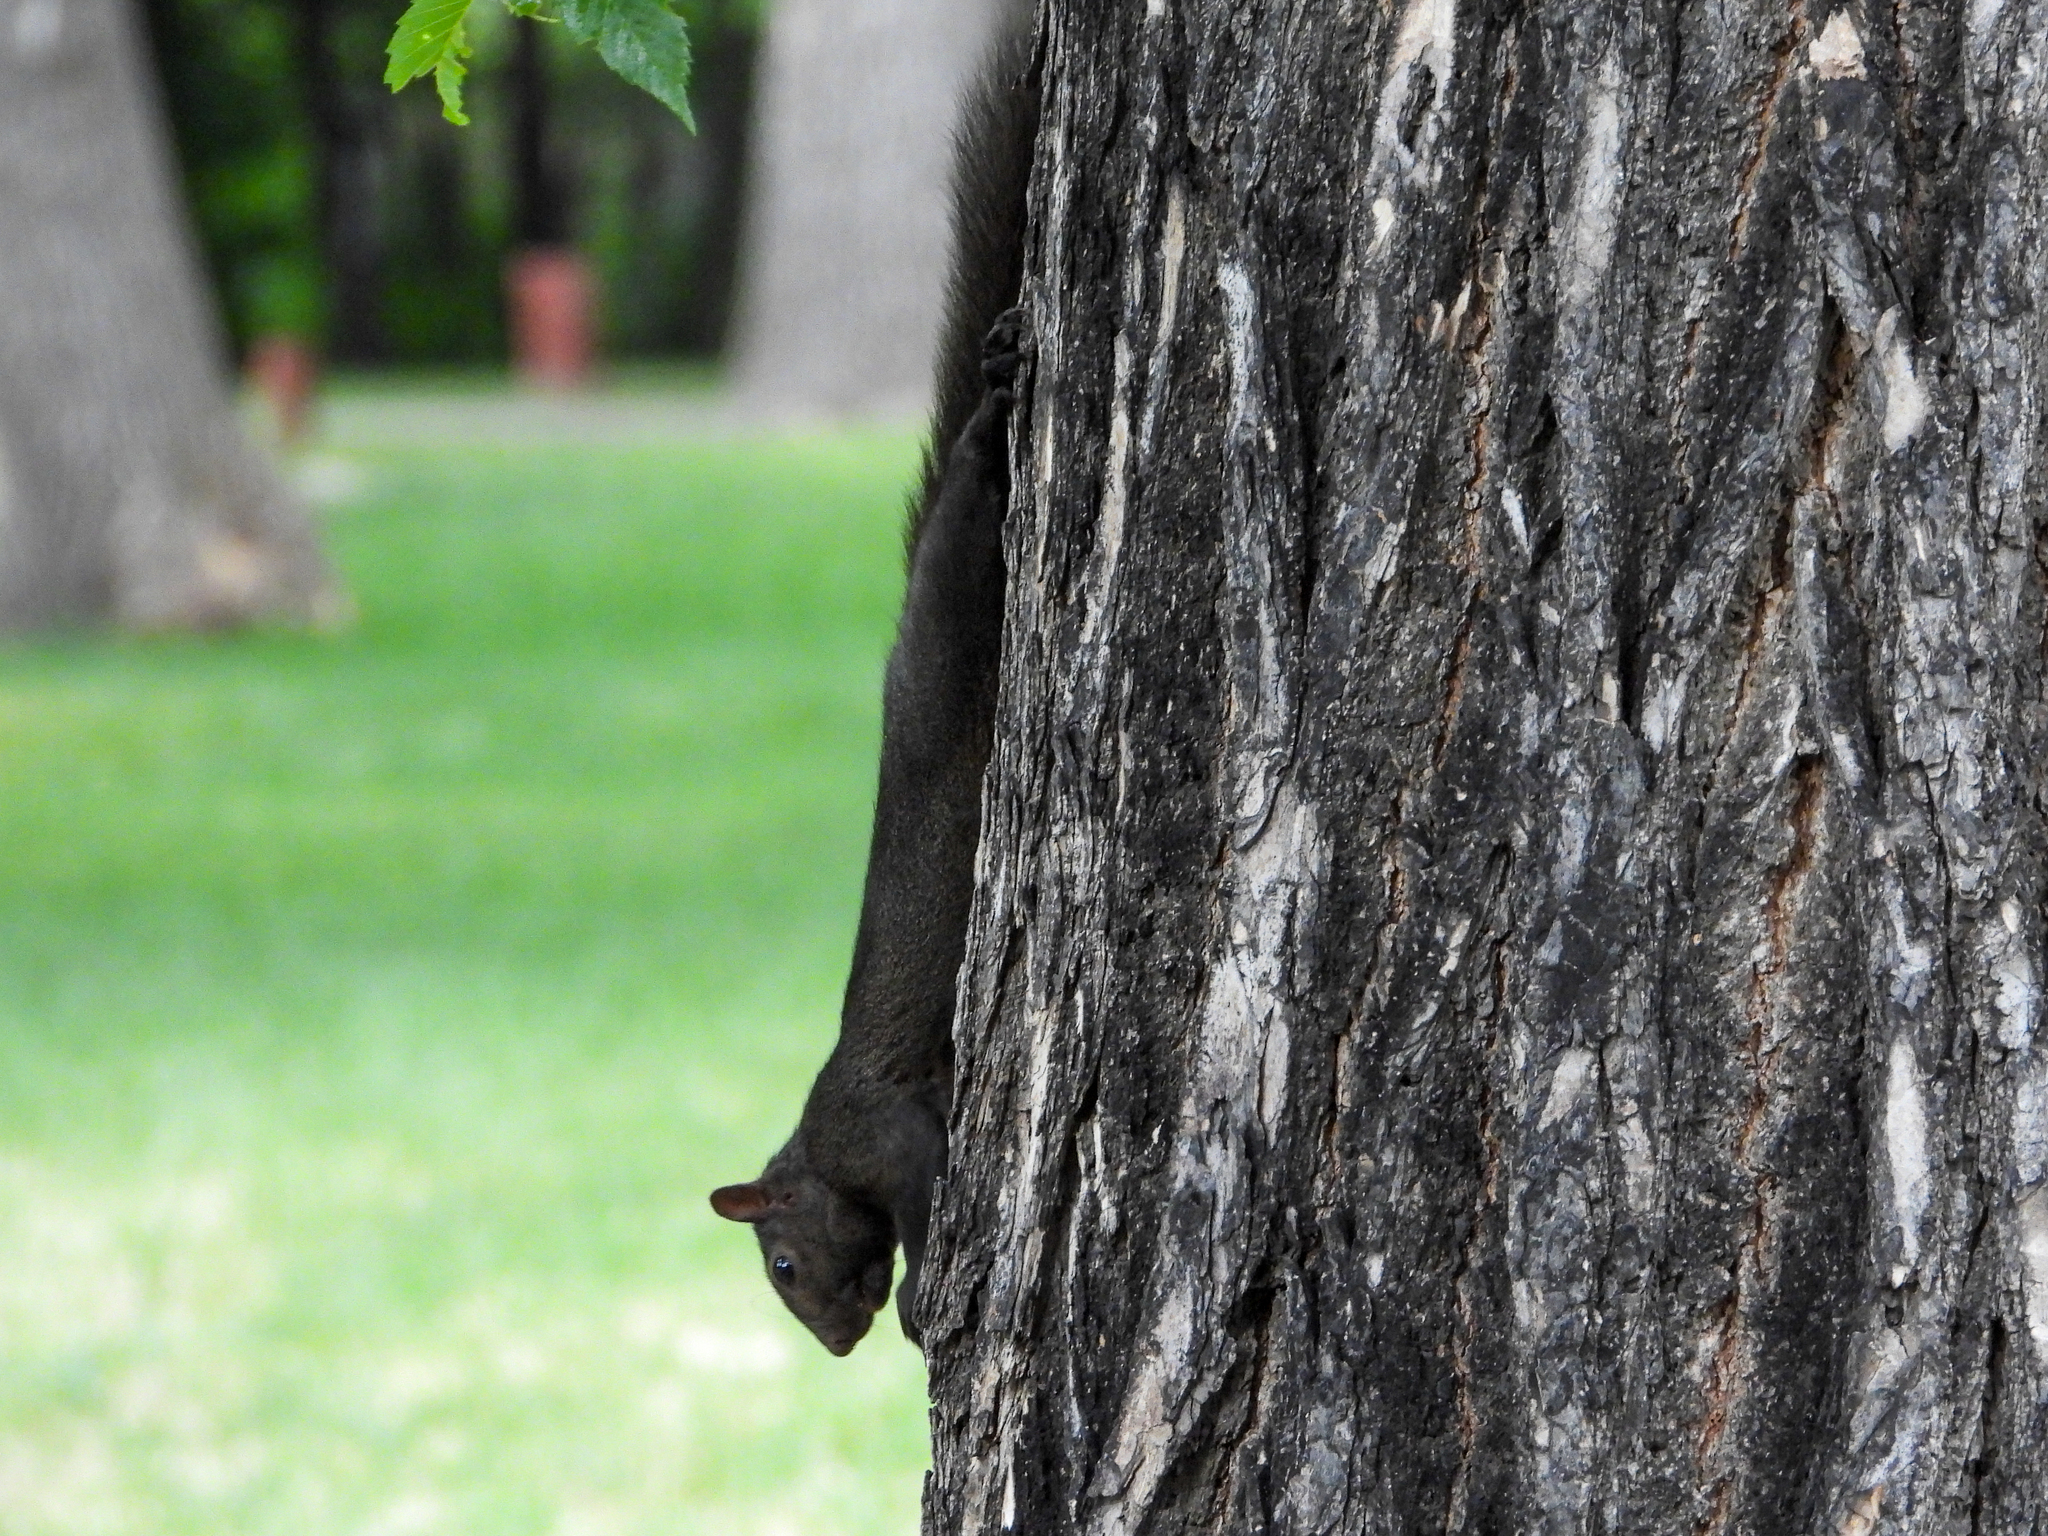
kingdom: Animalia
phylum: Chordata
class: Mammalia
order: Rodentia
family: Sciuridae
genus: Sciurus
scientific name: Sciurus carolinensis
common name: Eastern gray squirrel
